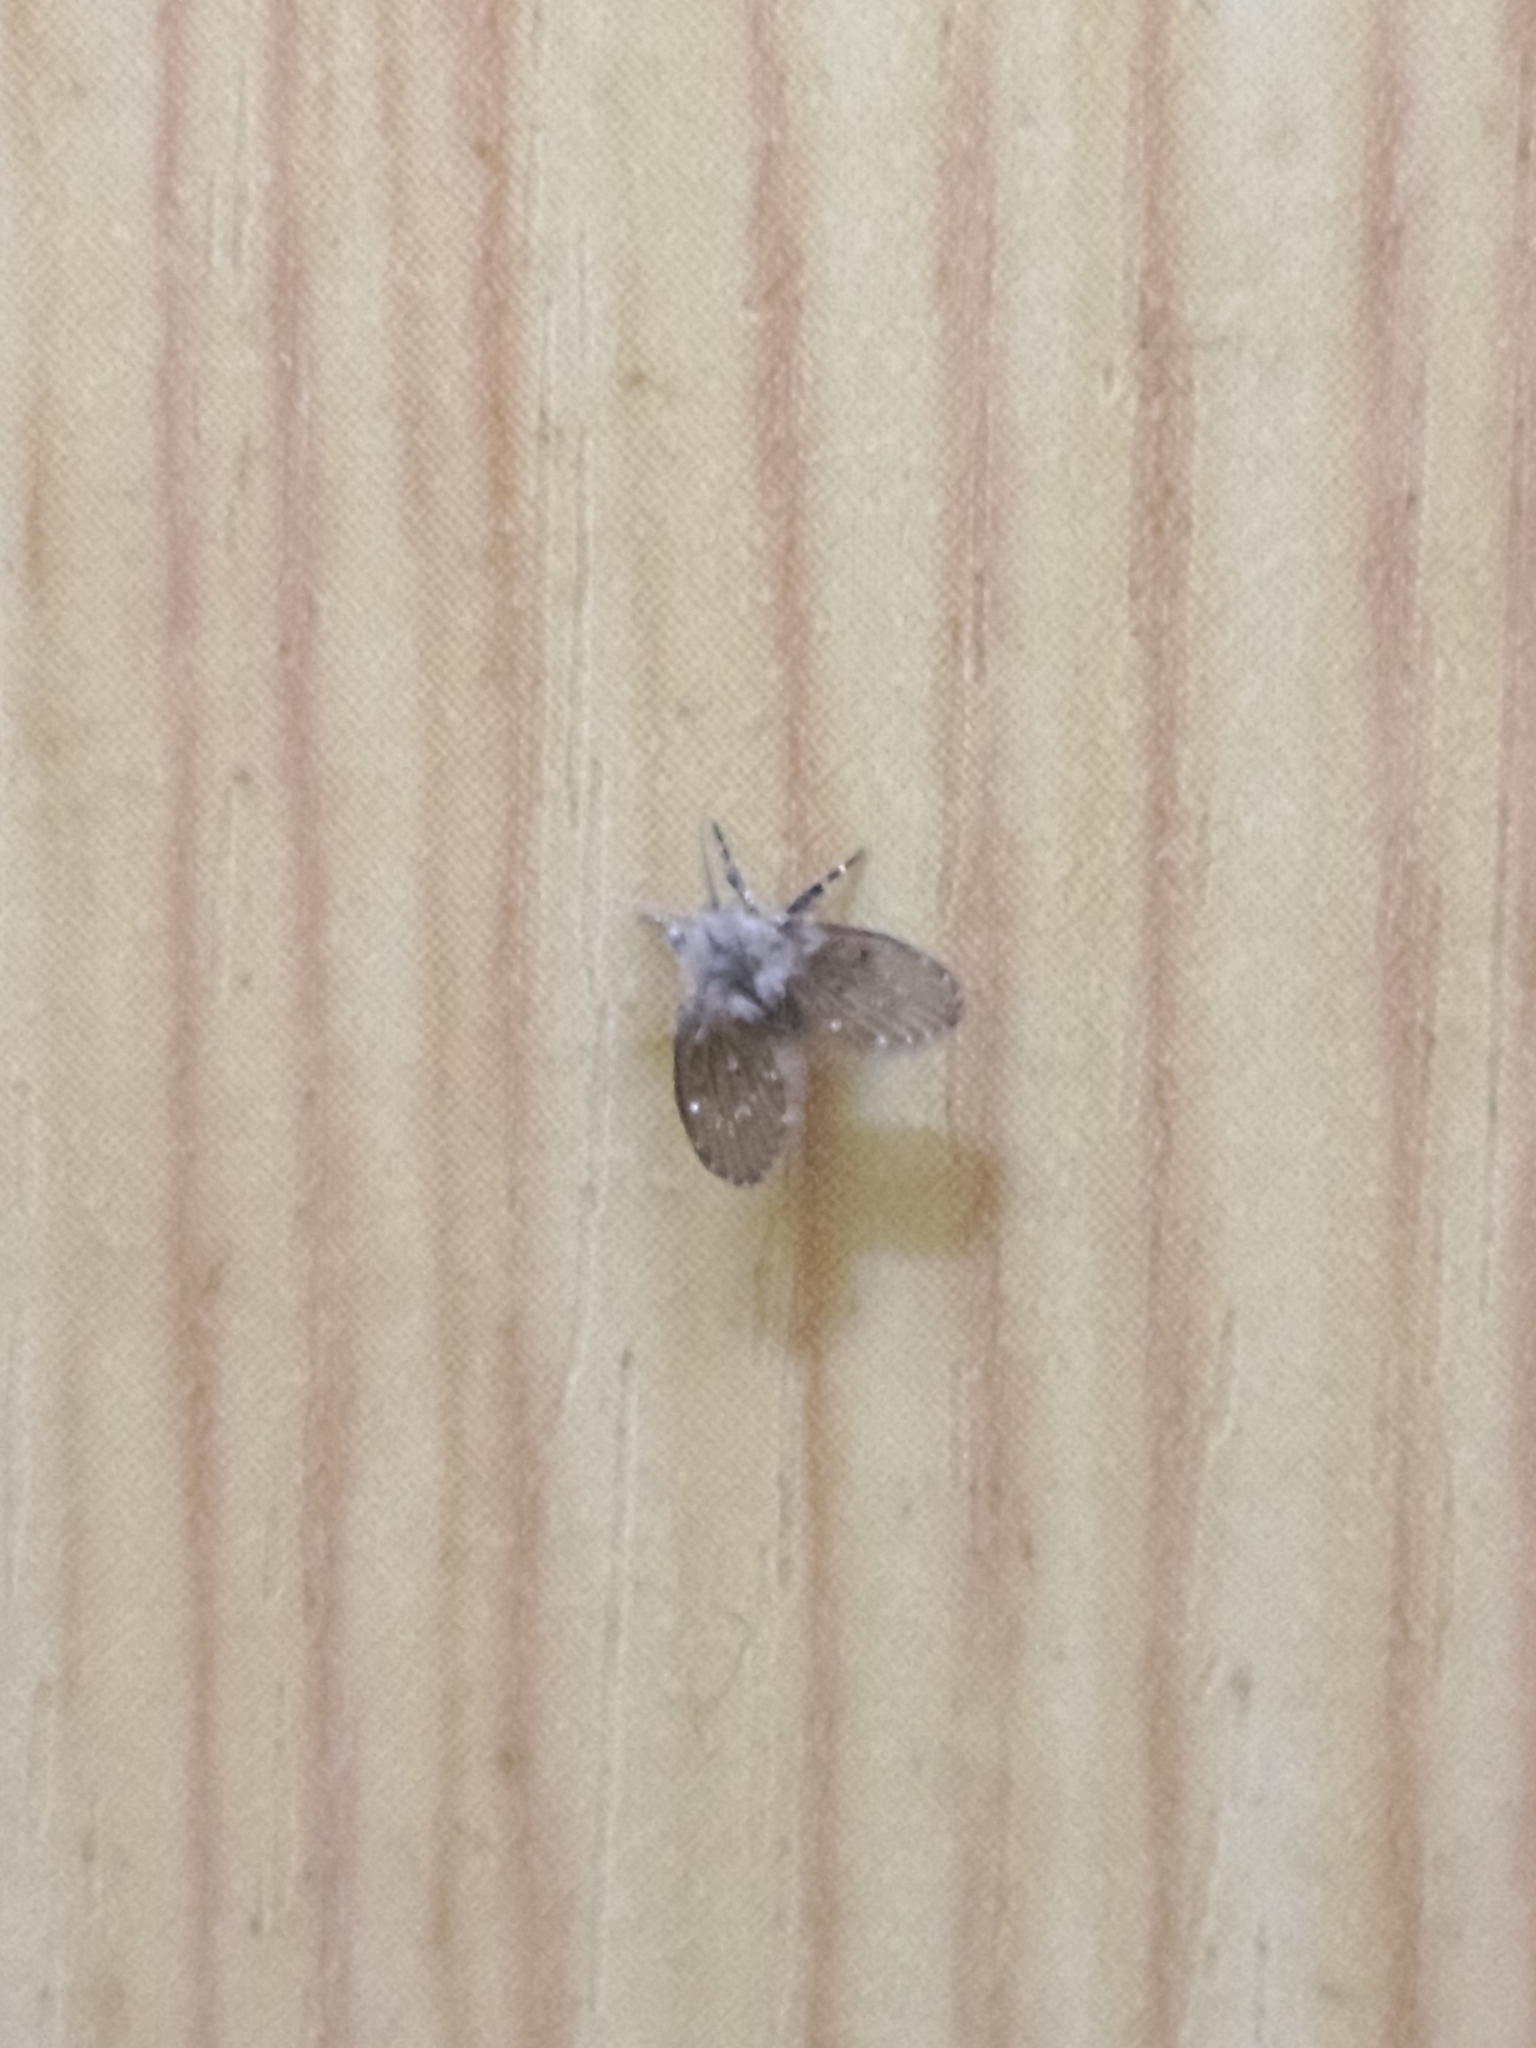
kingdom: Animalia
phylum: Arthropoda
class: Insecta
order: Diptera
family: Psychodidae
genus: Clogmia
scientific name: Clogmia albipunctatus
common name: White-spotted moth fly
